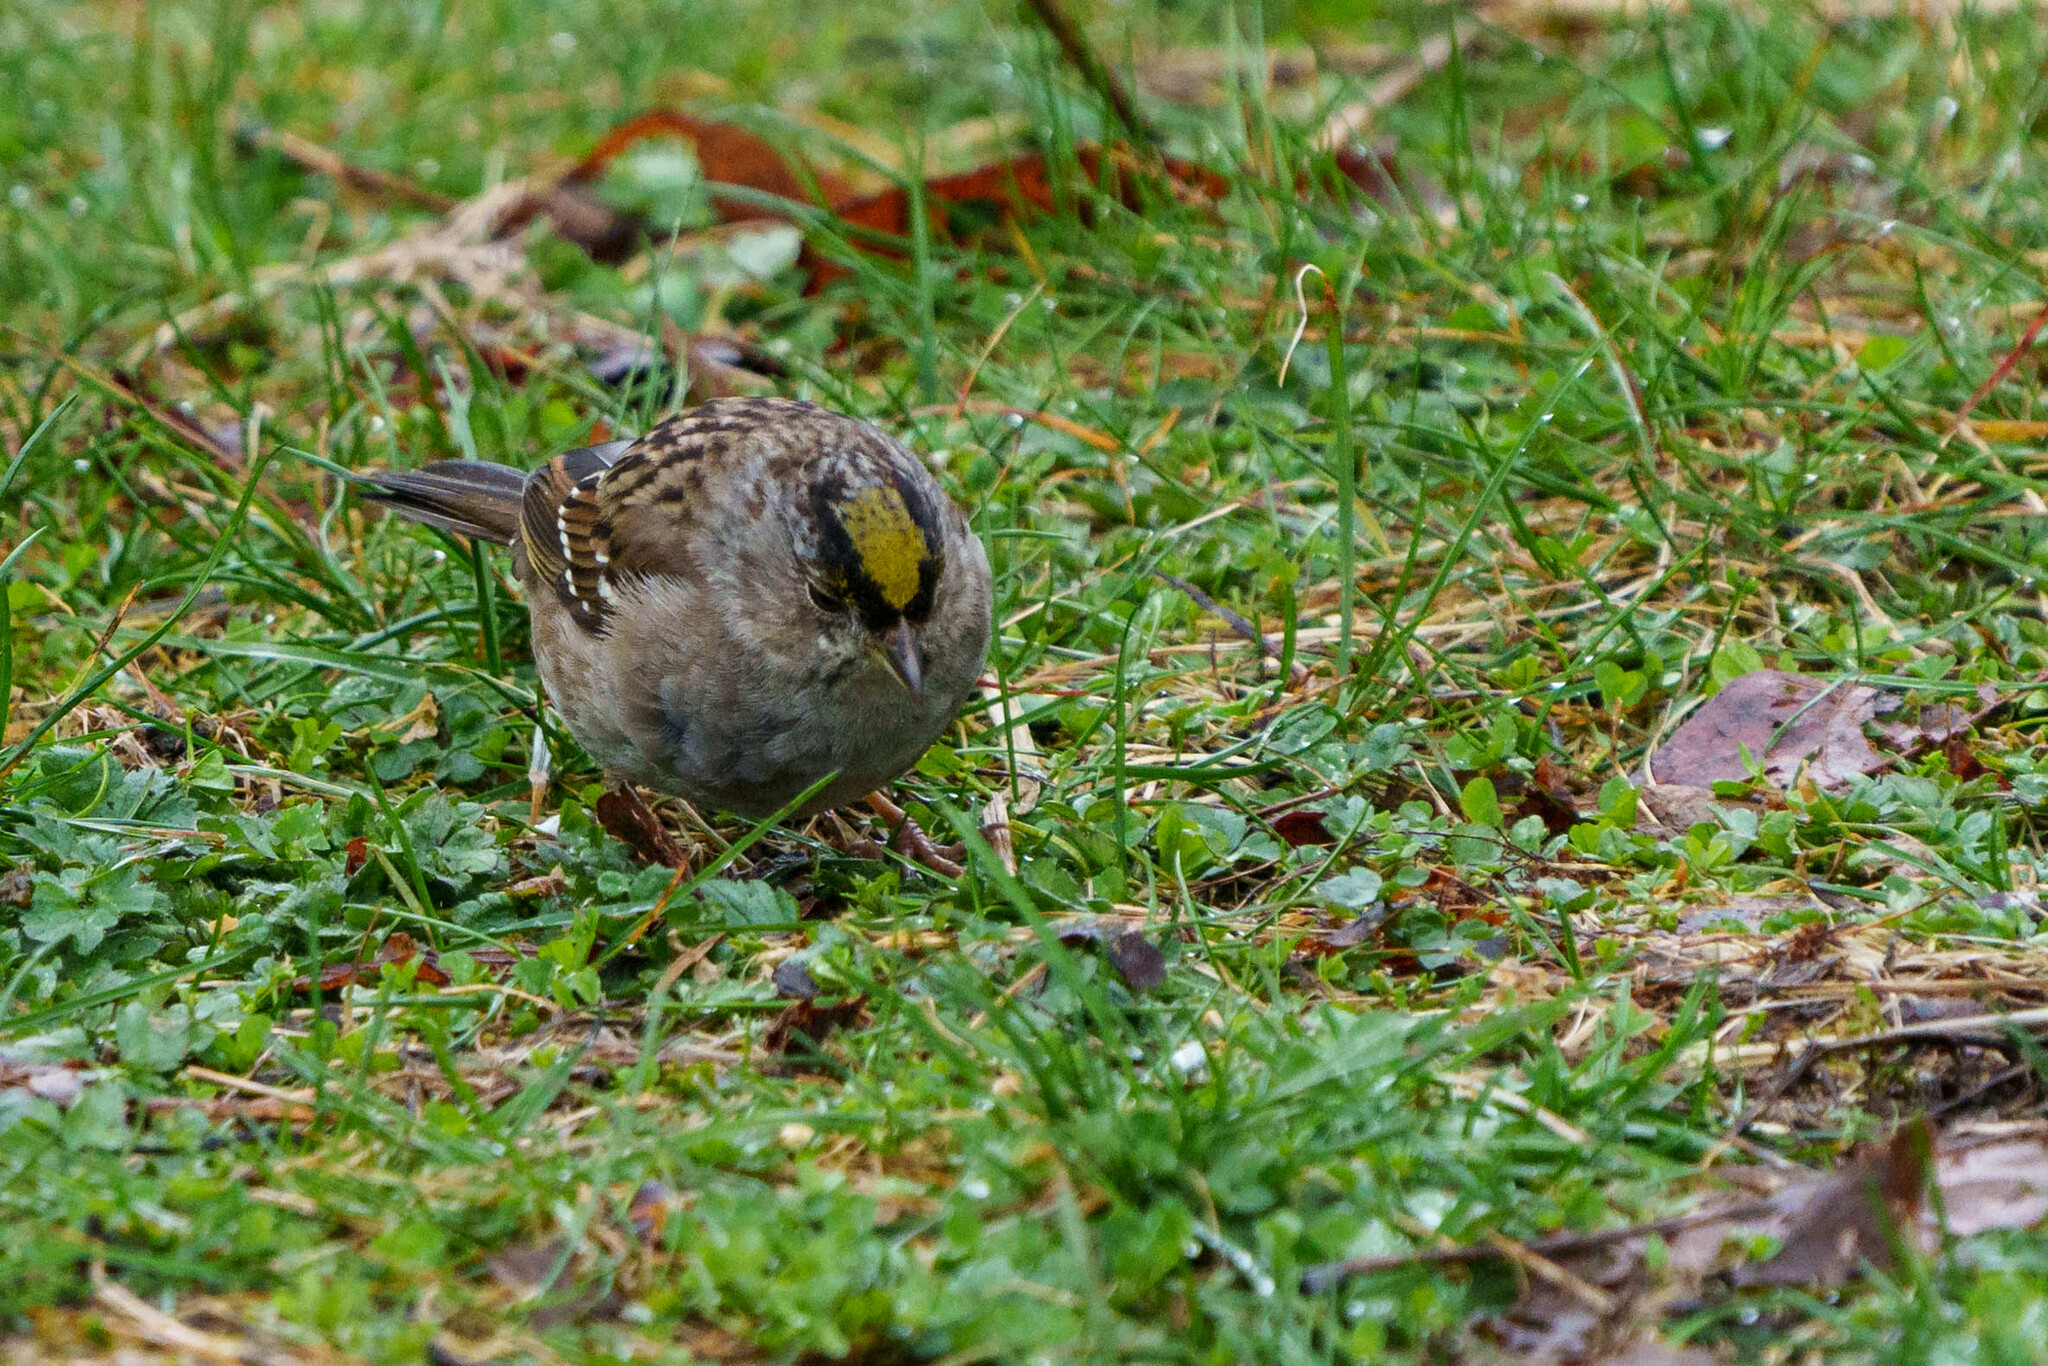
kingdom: Animalia
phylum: Chordata
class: Aves
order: Passeriformes
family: Passerellidae
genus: Zonotrichia
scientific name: Zonotrichia atricapilla
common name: Golden-crowned sparrow
